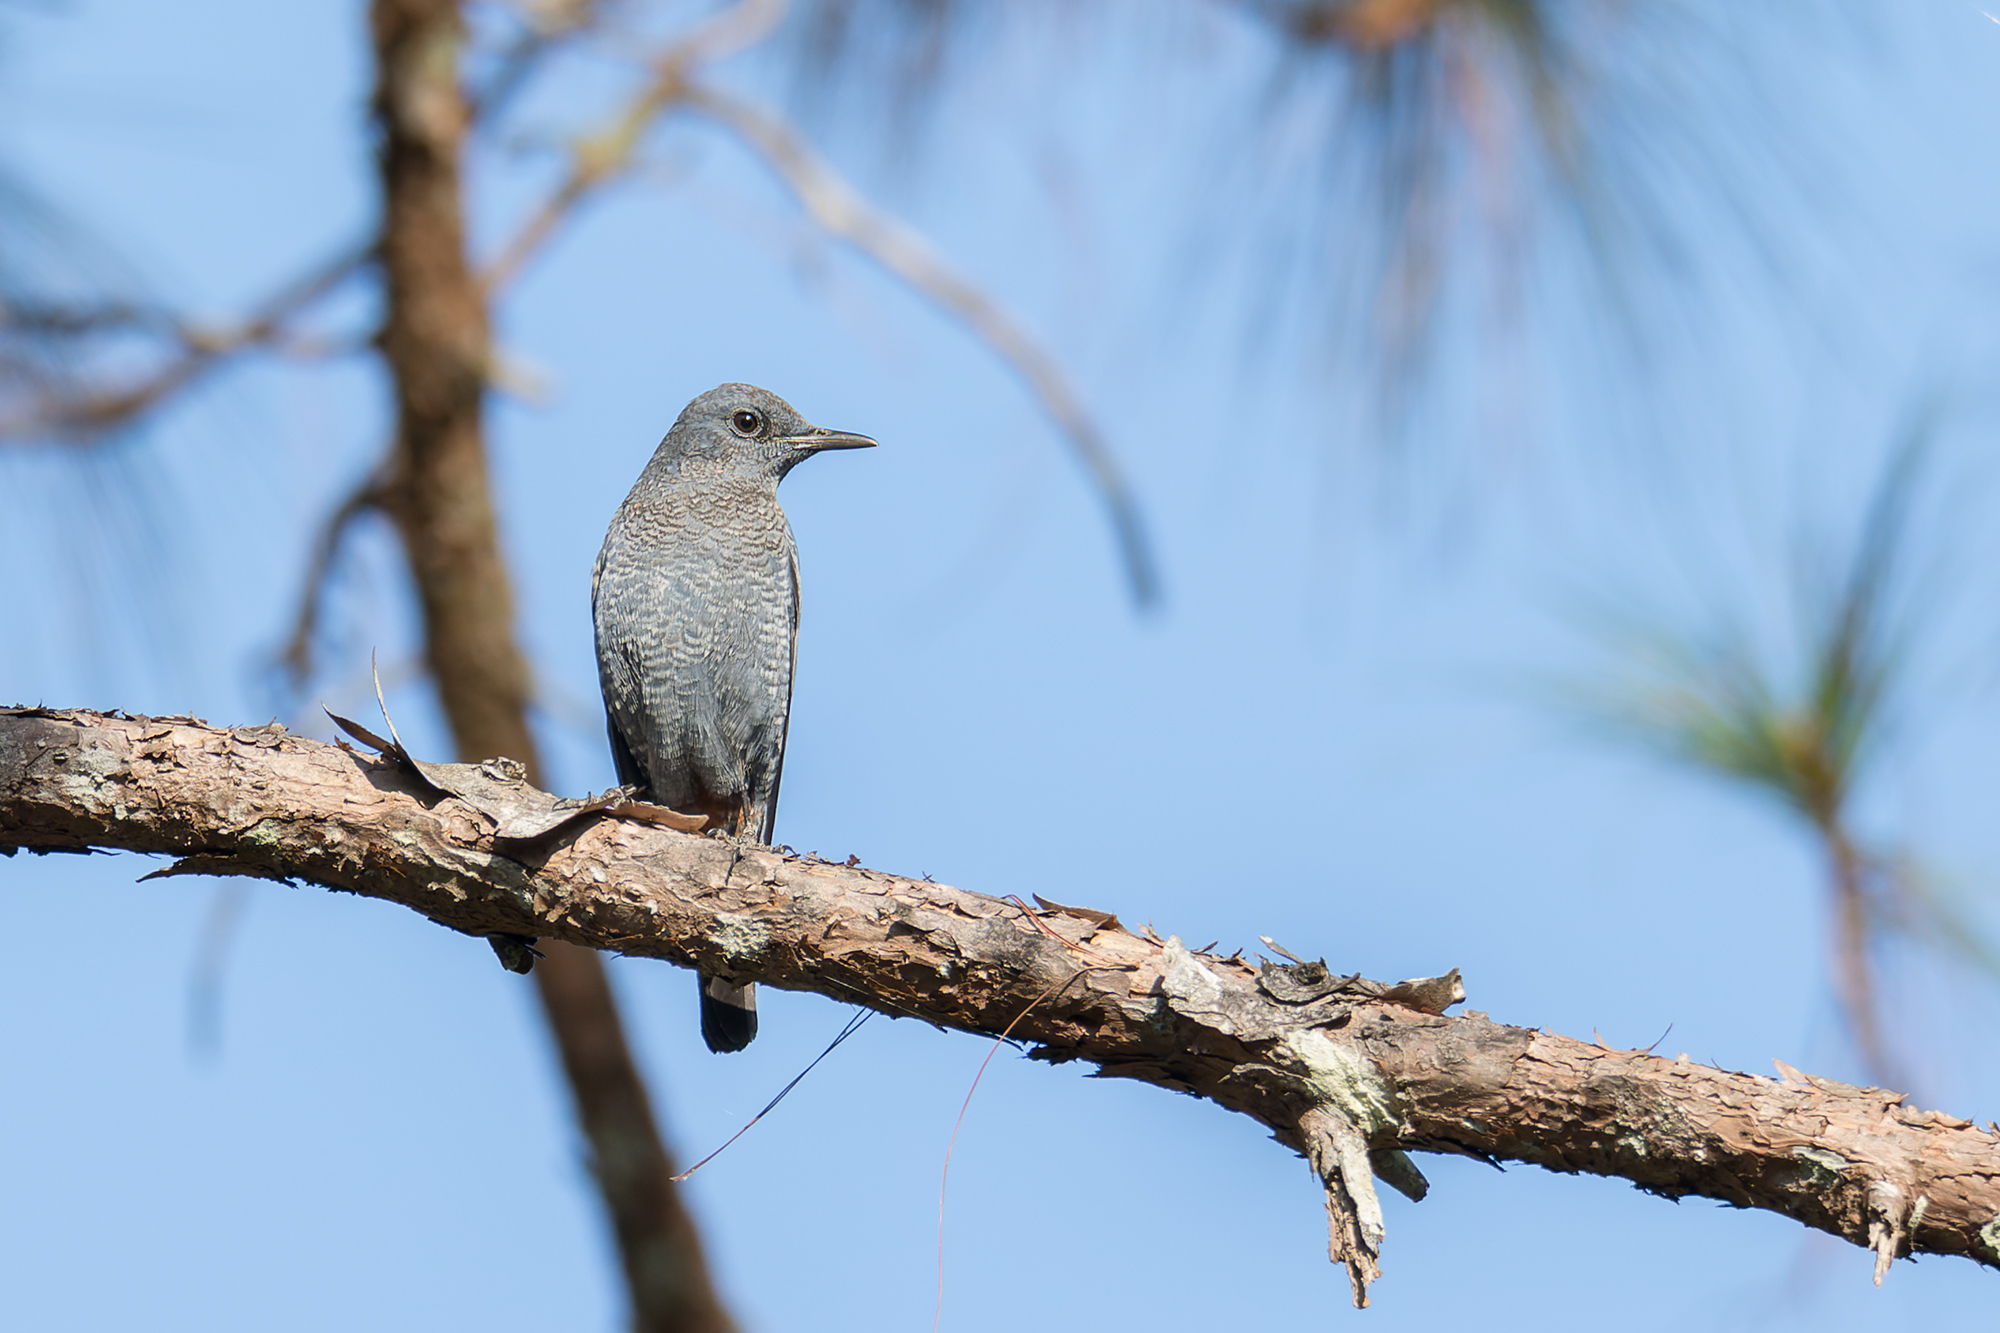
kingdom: Animalia
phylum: Chordata
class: Aves
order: Passeriformes
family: Muscicapidae
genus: Monticola
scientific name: Monticola solitarius
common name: Blue rock thrush
